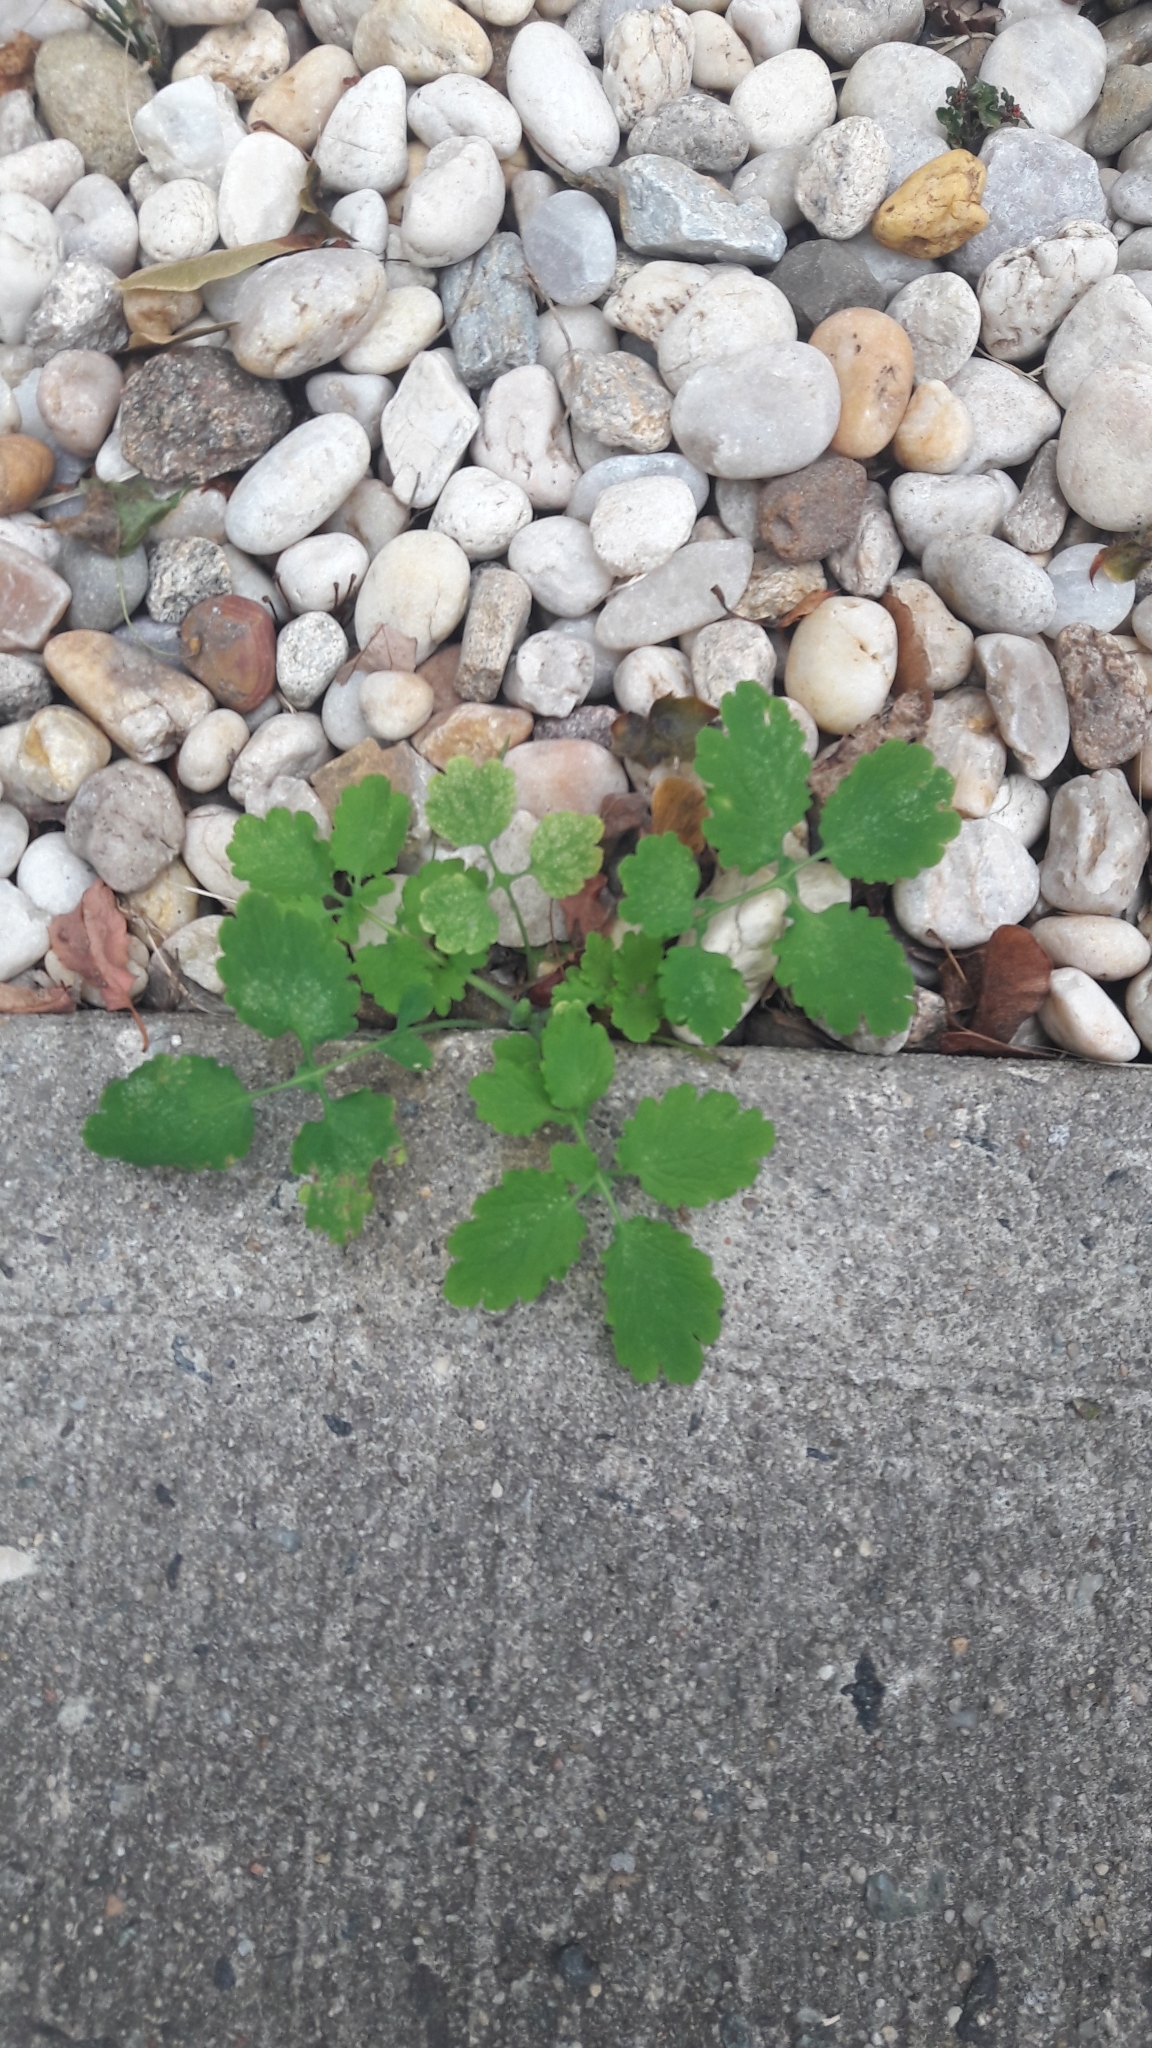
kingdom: Plantae
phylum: Tracheophyta
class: Magnoliopsida
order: Ranunculales
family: Papaveraceae
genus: Chelidonium
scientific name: Chelidonium majus
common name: Greater celandine
